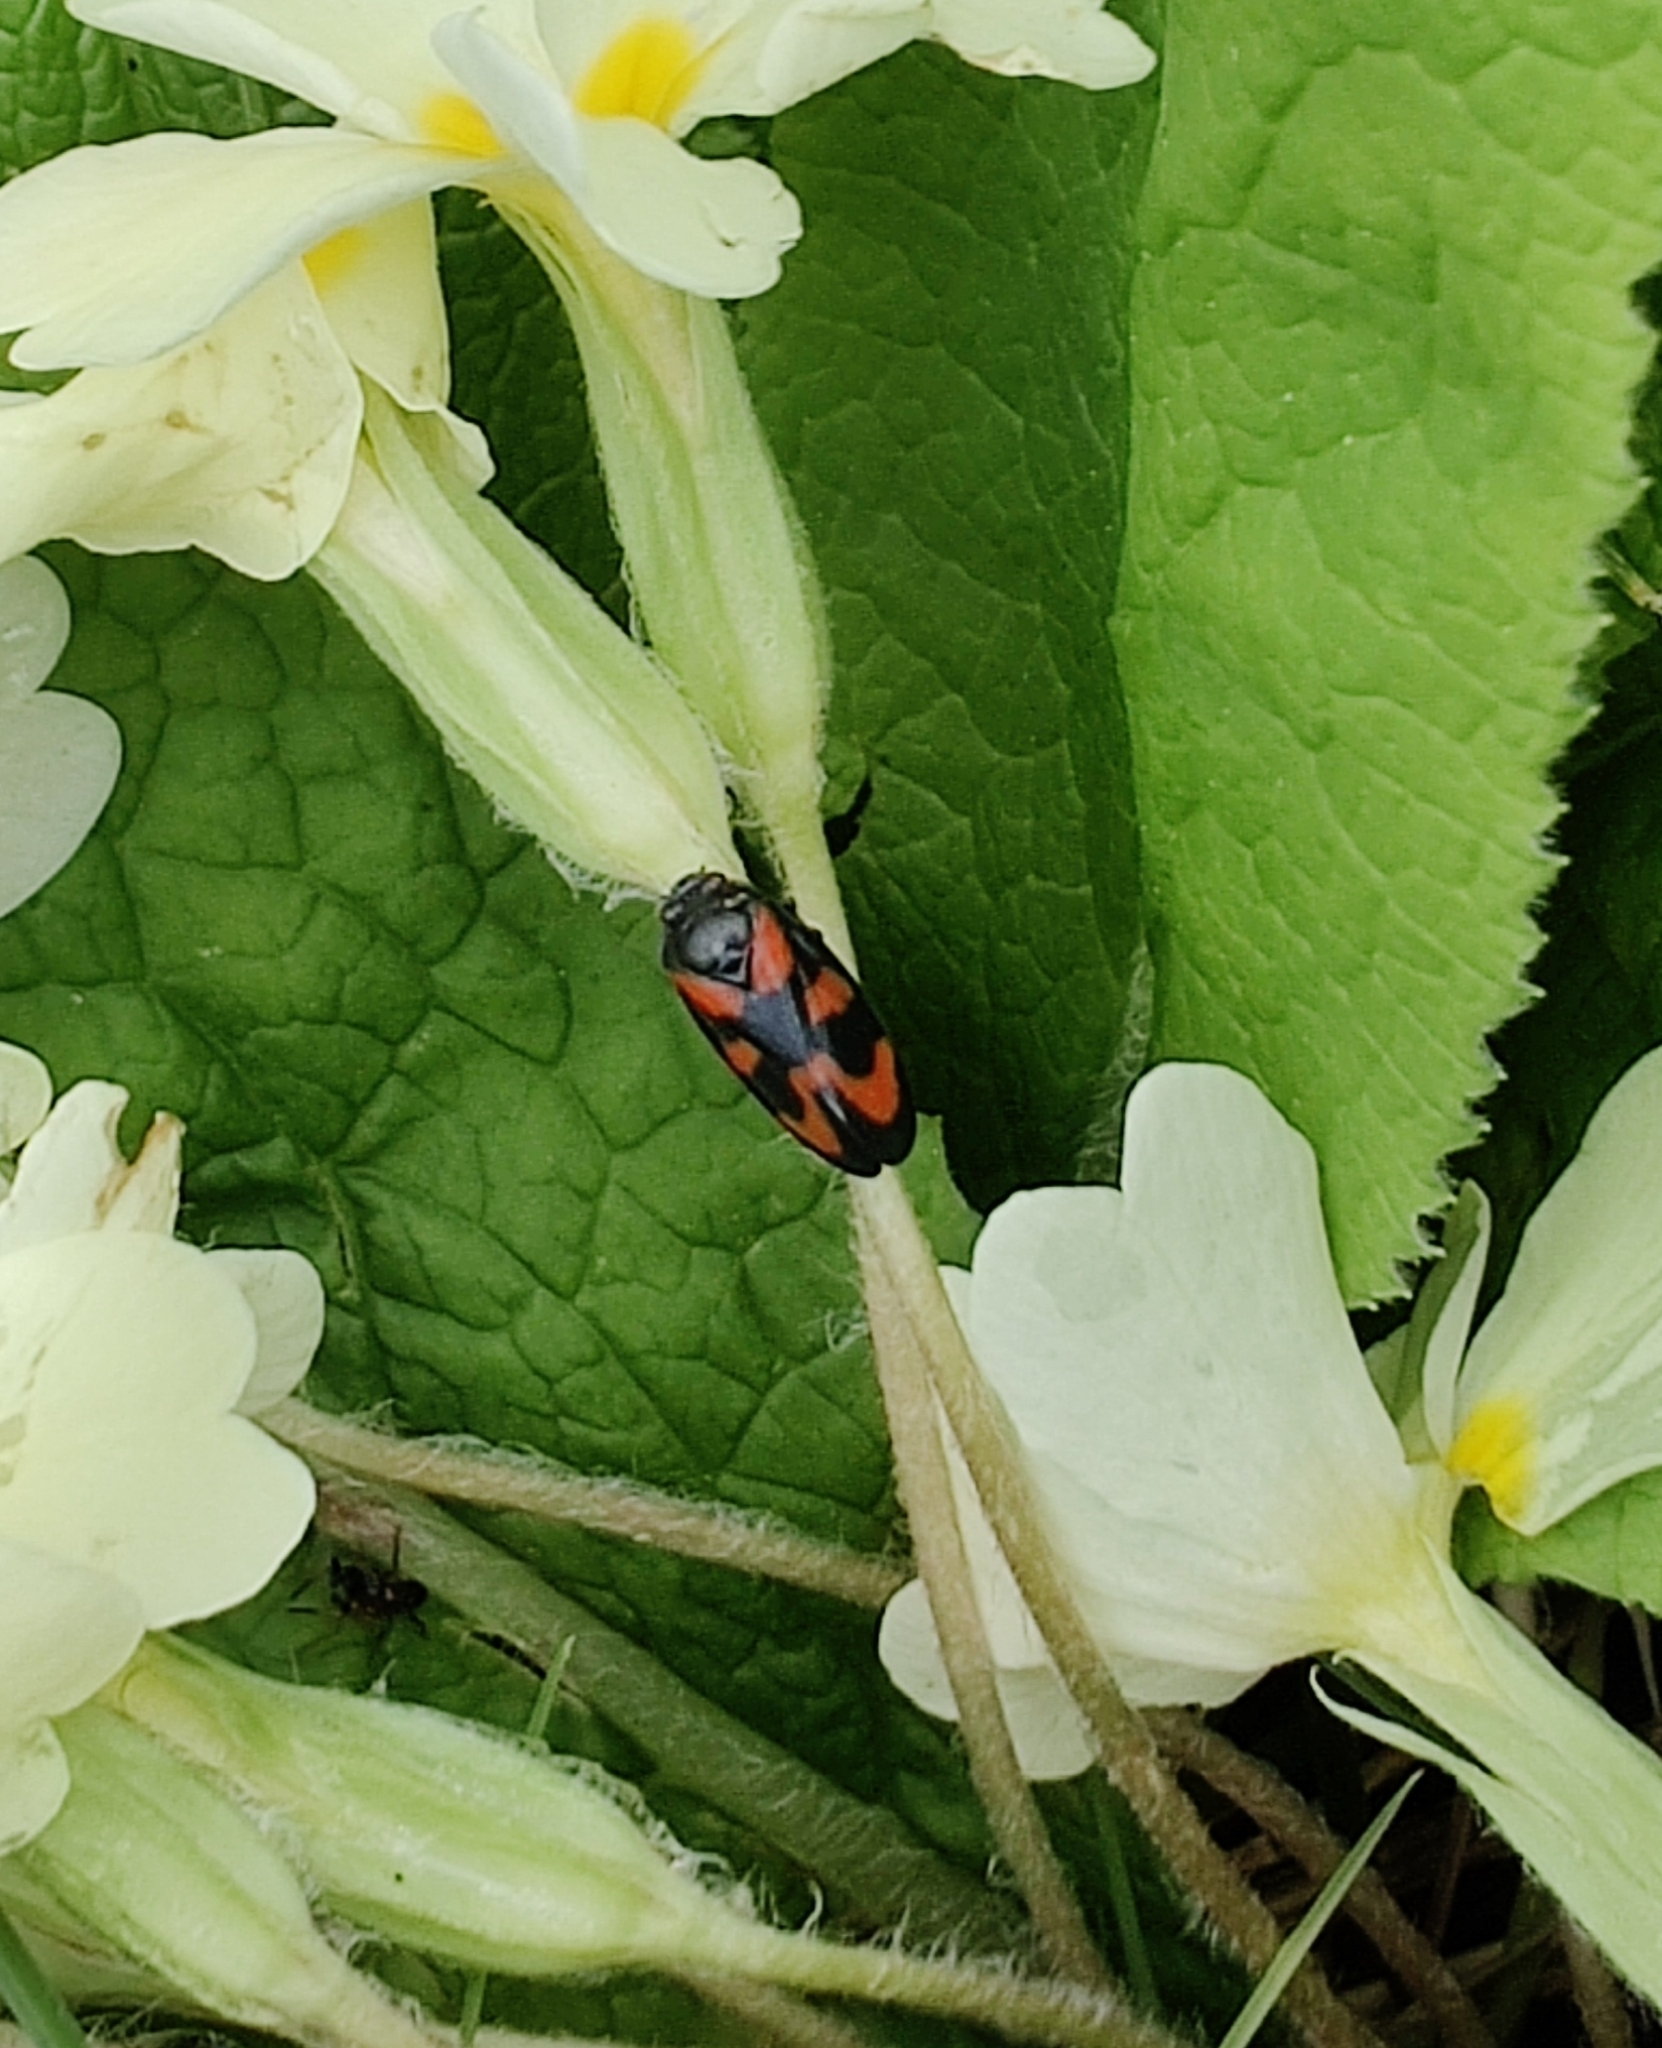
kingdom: Animalia
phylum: Arthropoda
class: Insecta
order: Hemiptera
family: Cercopidae
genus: Cercopis
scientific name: Cercopis vulnerata
